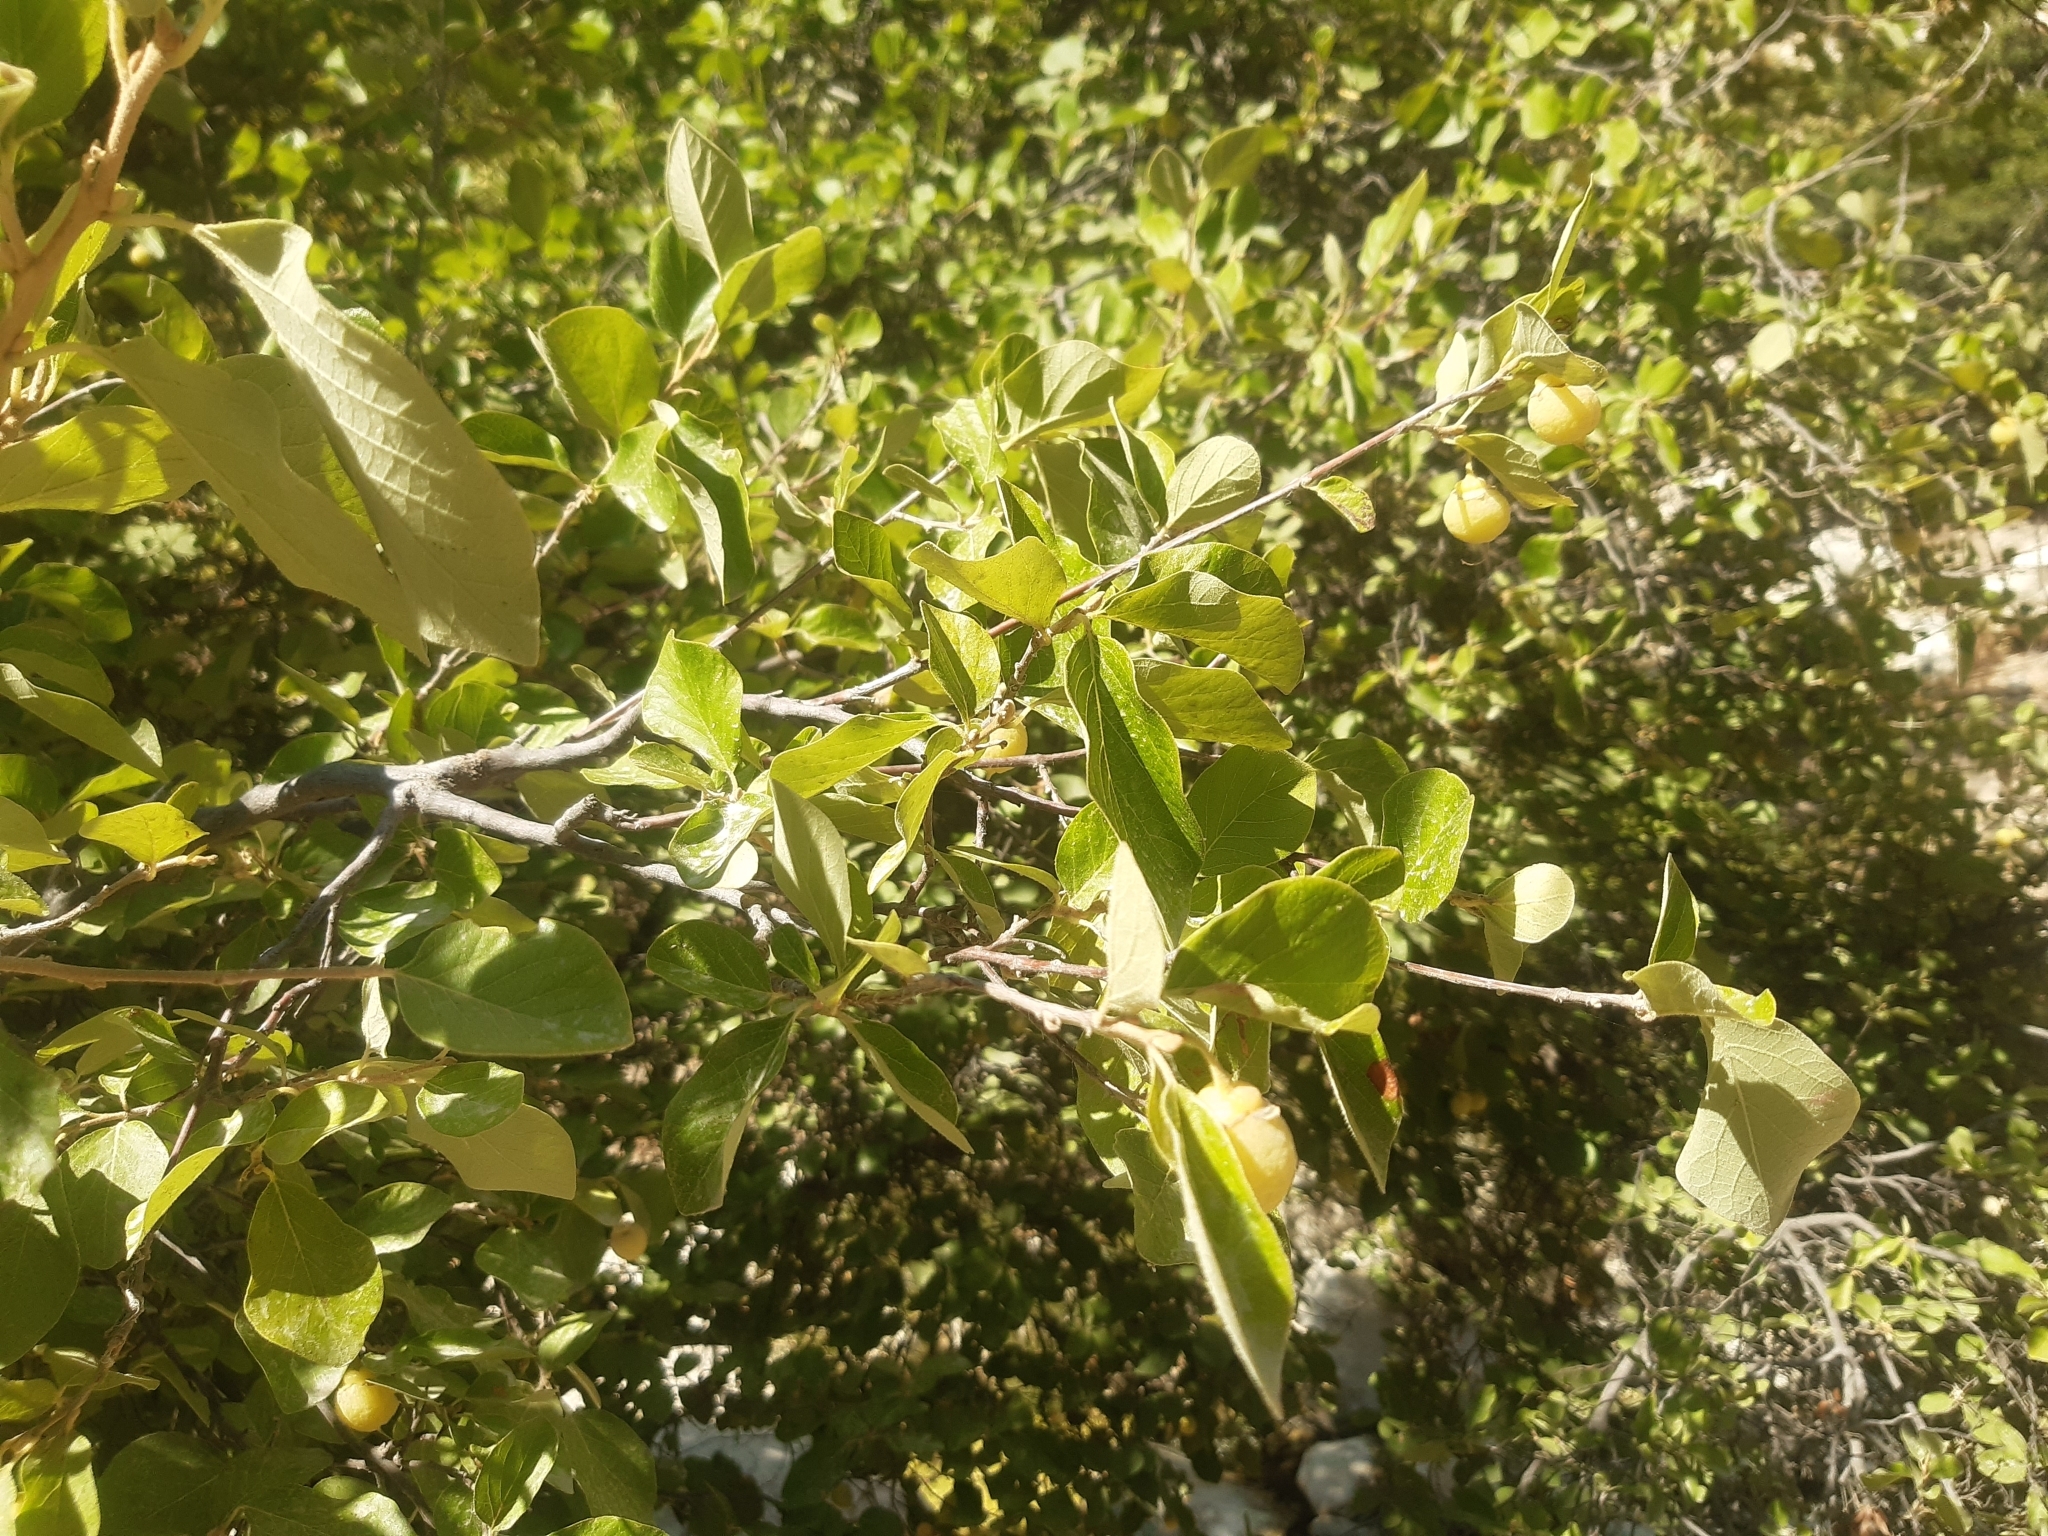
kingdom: Plantae
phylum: Tracheophyta
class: Magnoliopsida
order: Ericales
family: Styracaceae
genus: Styrax
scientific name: Styrax officinalis
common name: Storax
